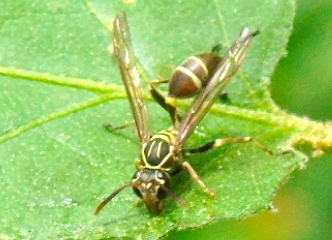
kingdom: Animalia
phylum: Arthropoda
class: Insecta
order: Hymenoptera
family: Vespidae
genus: Mischocyttarus
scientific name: Mischocyttarus
